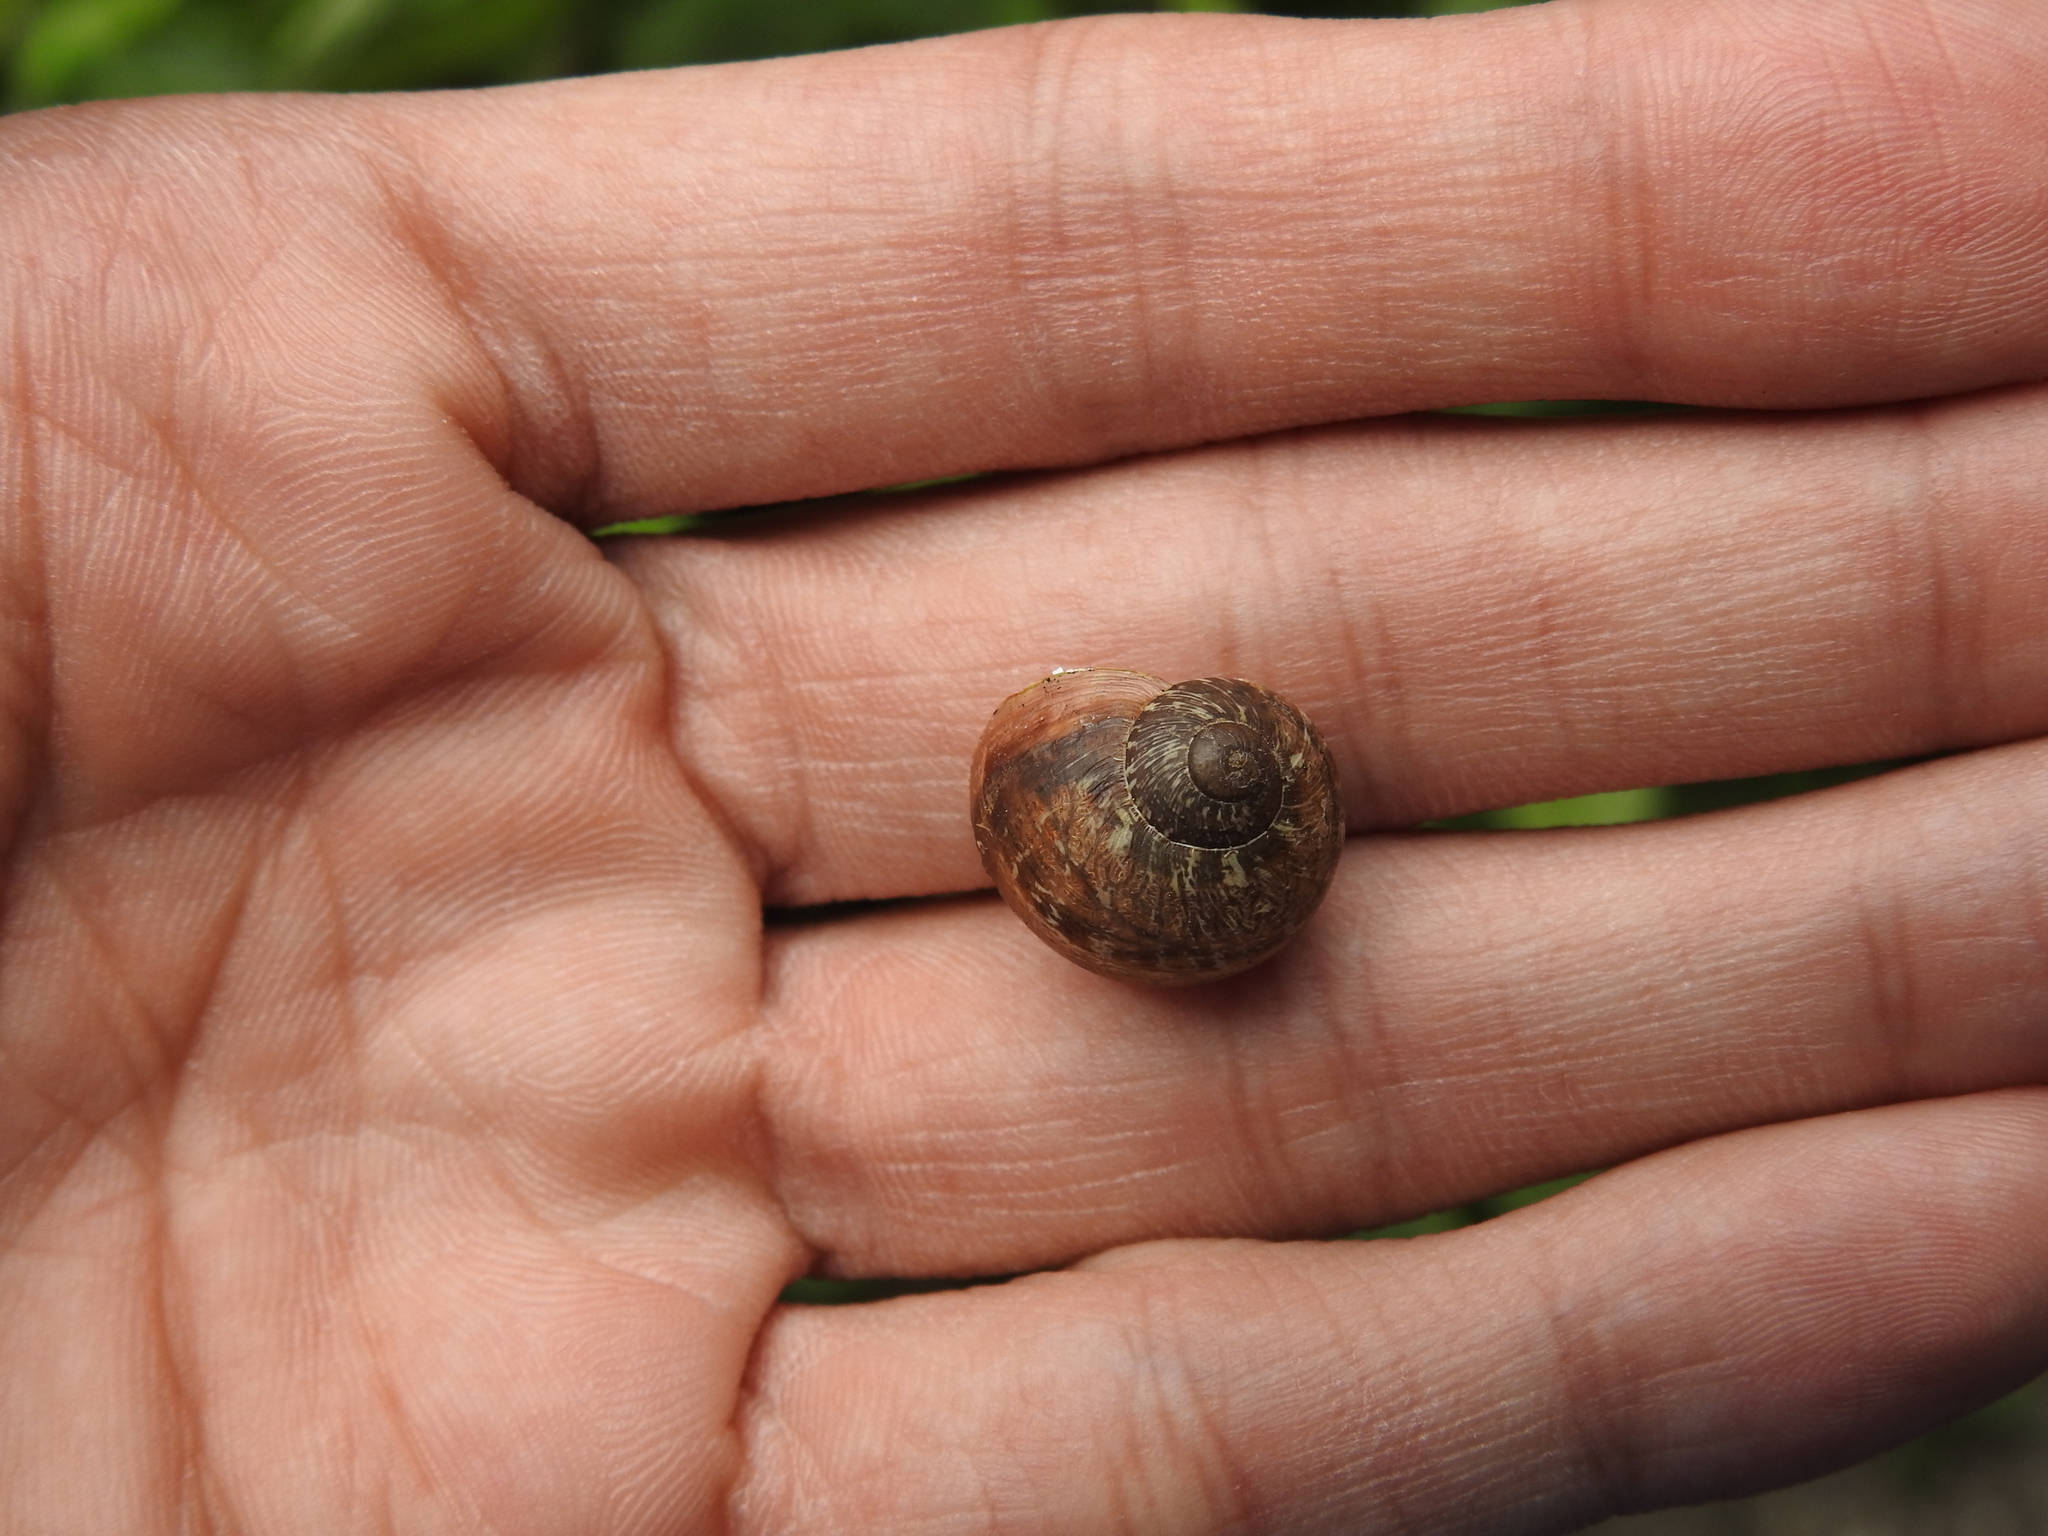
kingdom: Animalia
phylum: Mollusca
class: Gastropoda
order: Stylommatophora
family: Helicidae
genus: Cornu
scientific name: Cornu aspersum
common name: Brown garden snail
